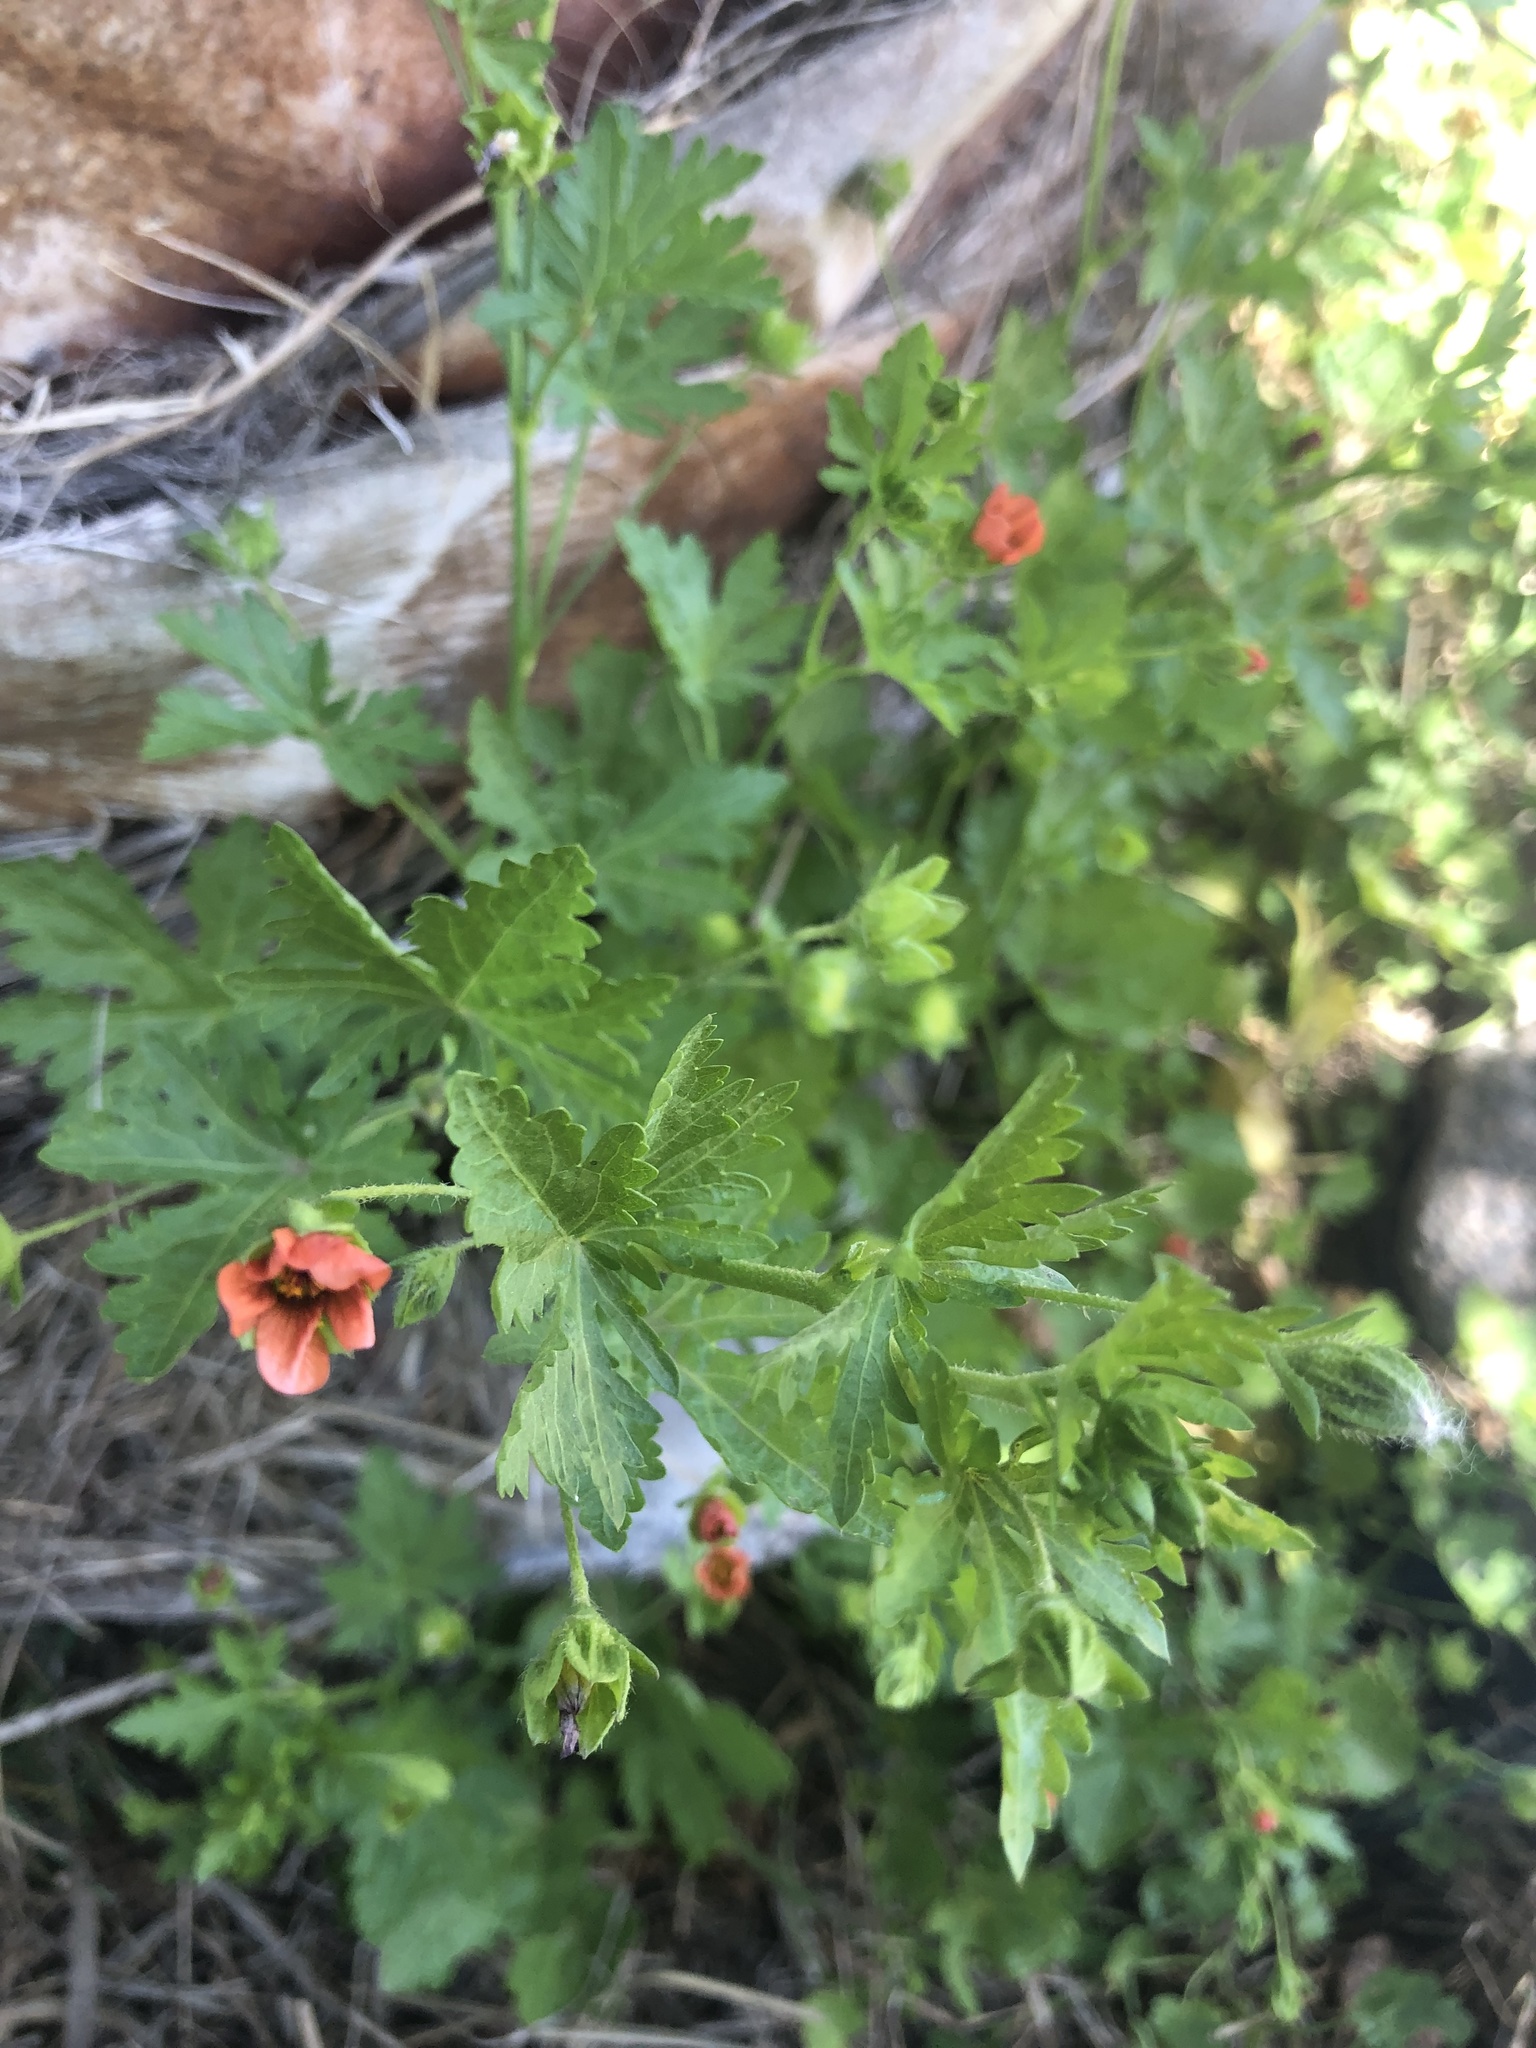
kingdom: Plantae
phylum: Tracheophyta
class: Magnoliopsida
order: Malvales
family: Malvaceae
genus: Modiola
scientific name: Modiola caroliniana
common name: Carolina bristlemallow
